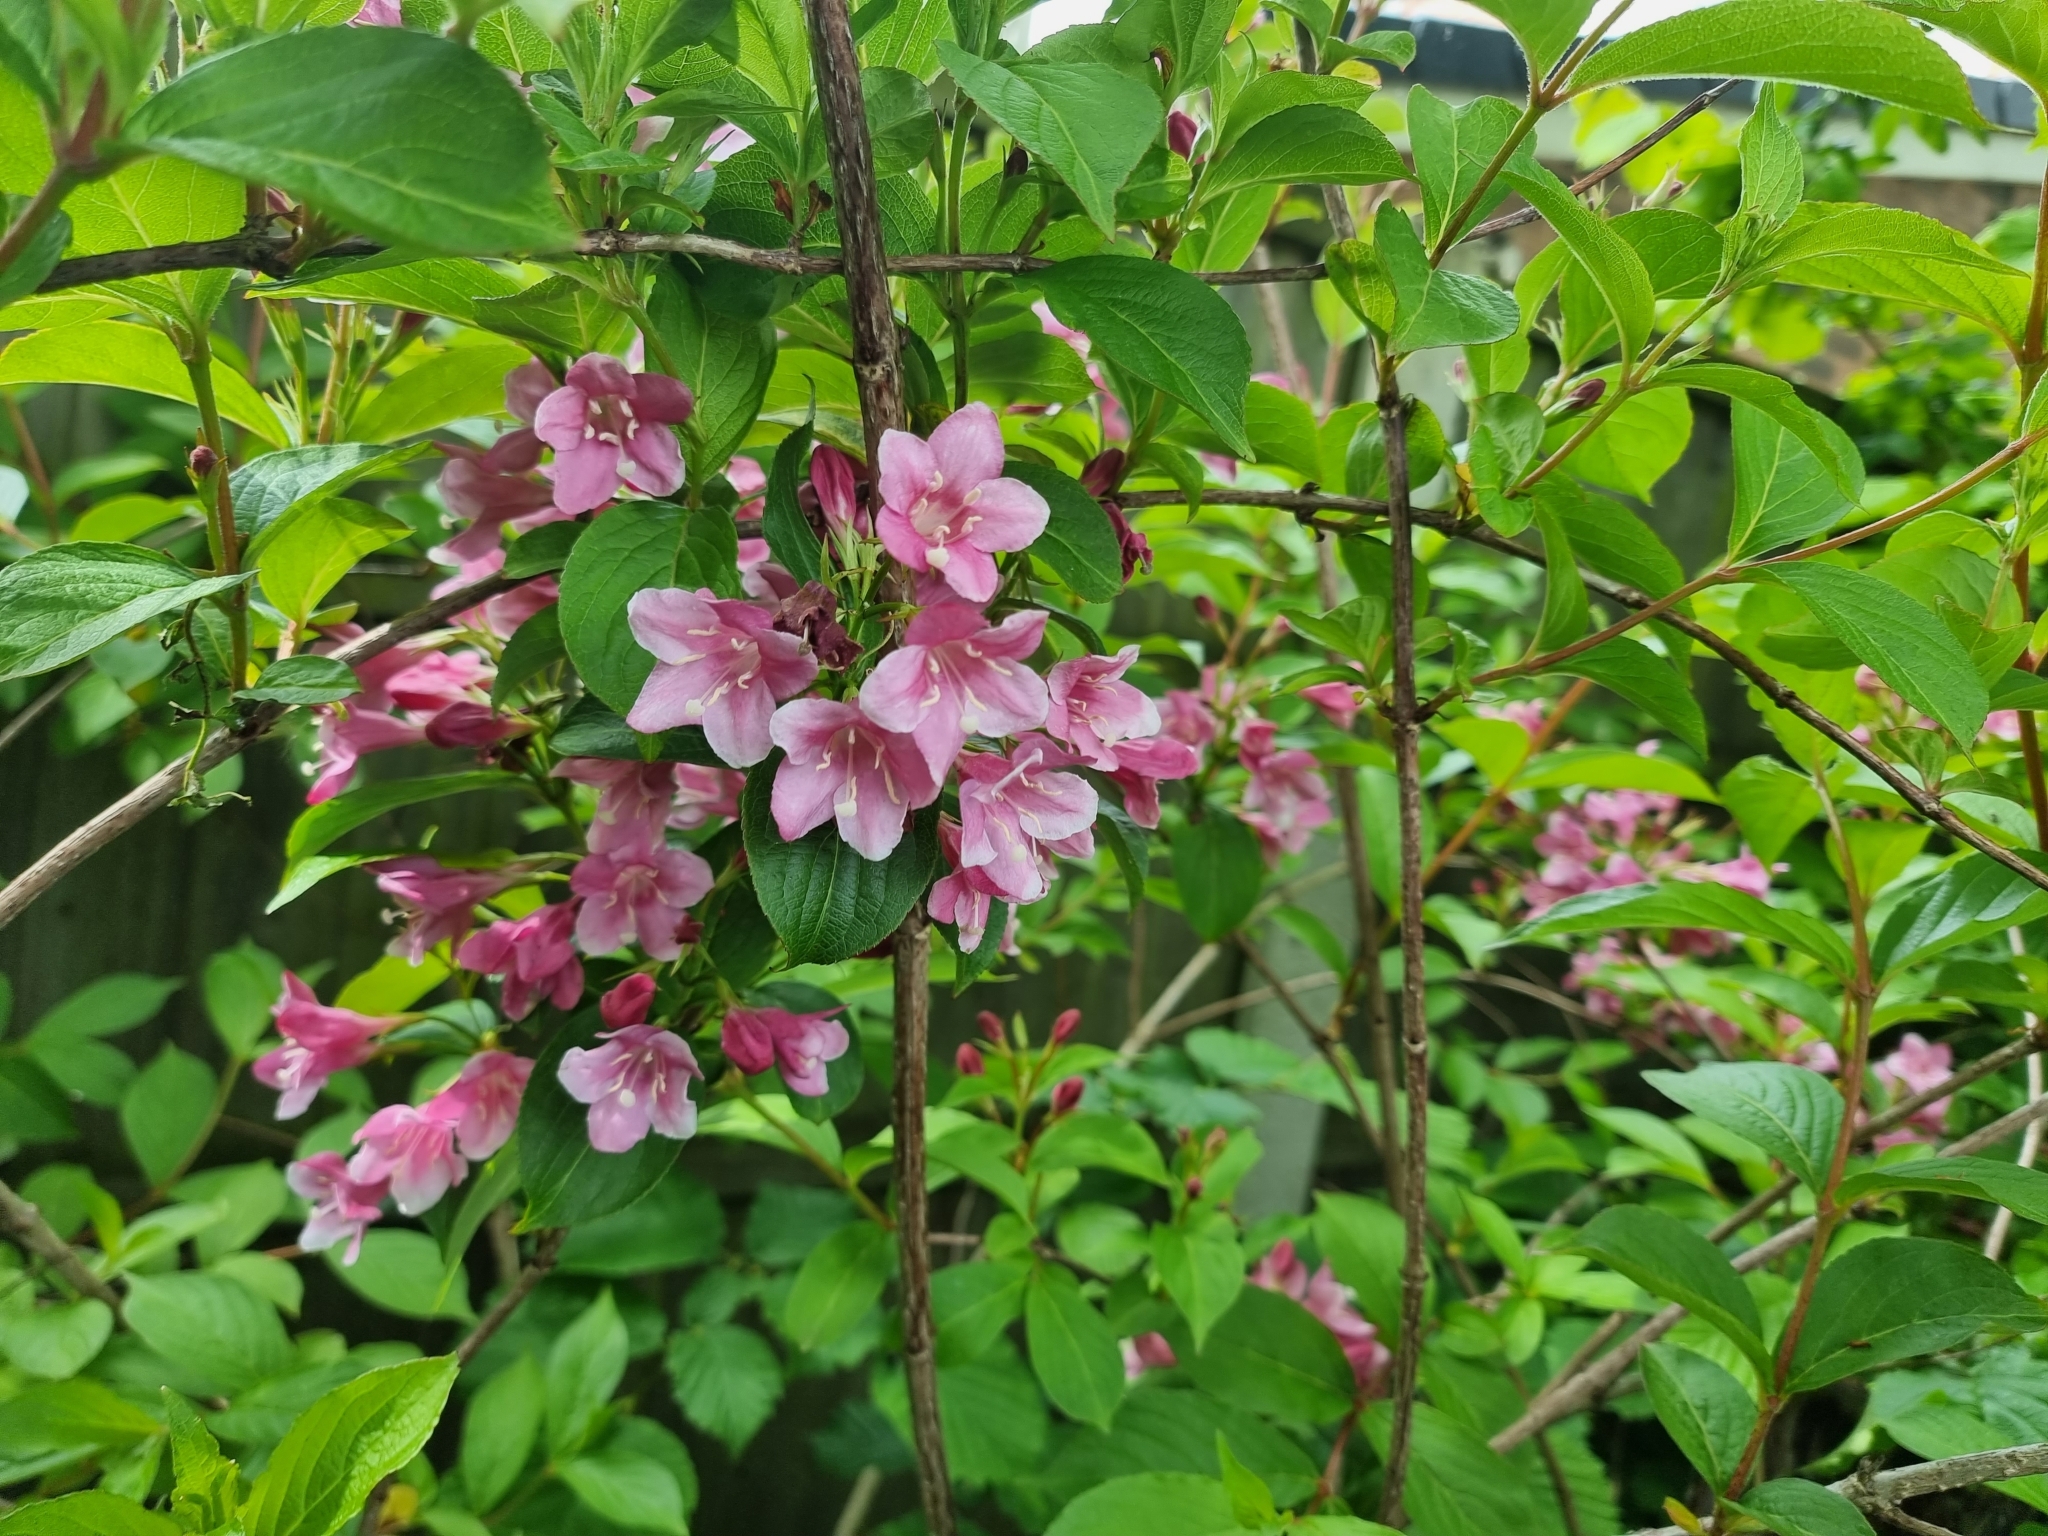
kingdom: Plantae
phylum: Tracheophyta
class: Magnoliopsida
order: Dipsacales
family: Caprifoliaceae
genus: Weigela
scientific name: Weigela florida
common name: Weigelia
